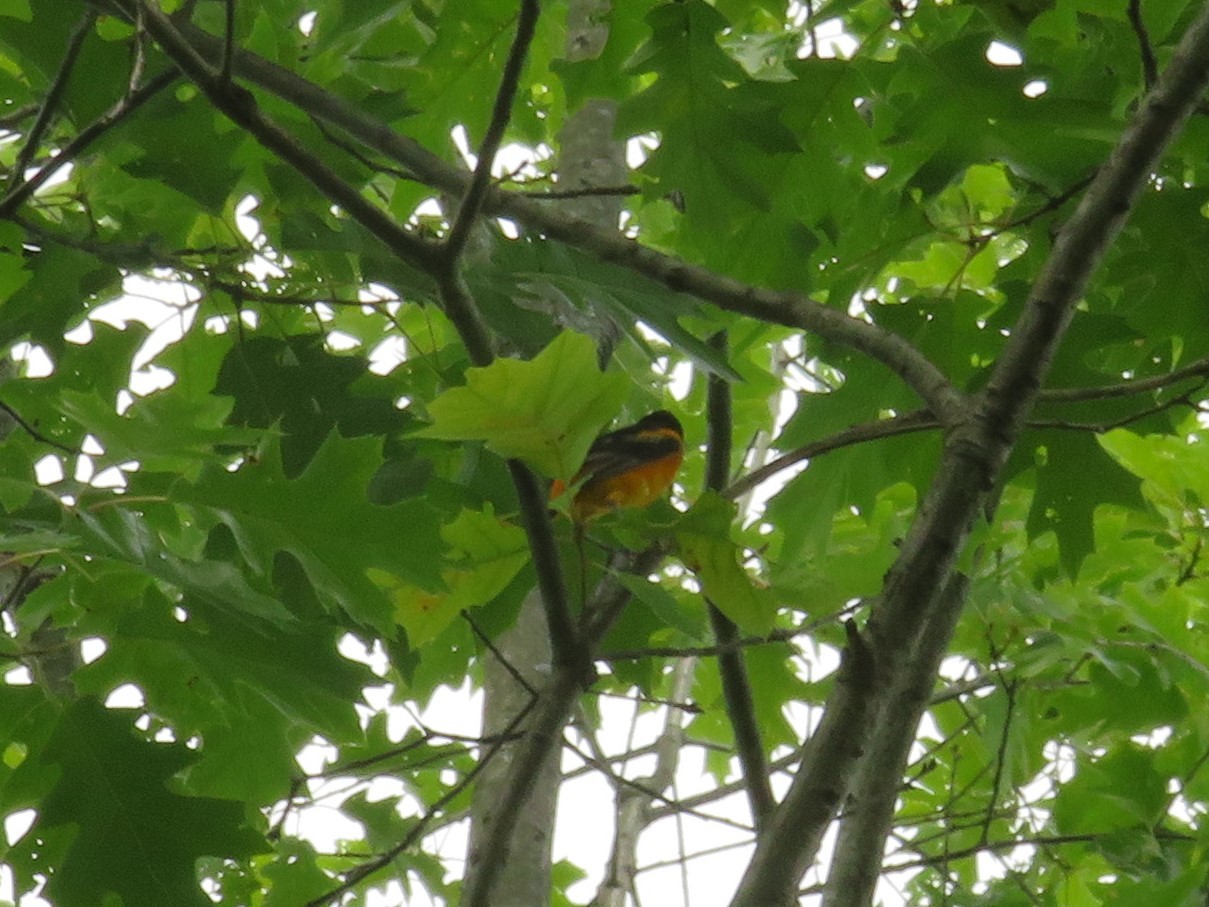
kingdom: Animalia
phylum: Chordata
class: Aves
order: Passeriformes
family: Icteridae
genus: Icterus
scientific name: Icterus galbula
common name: Baltimore oriole
